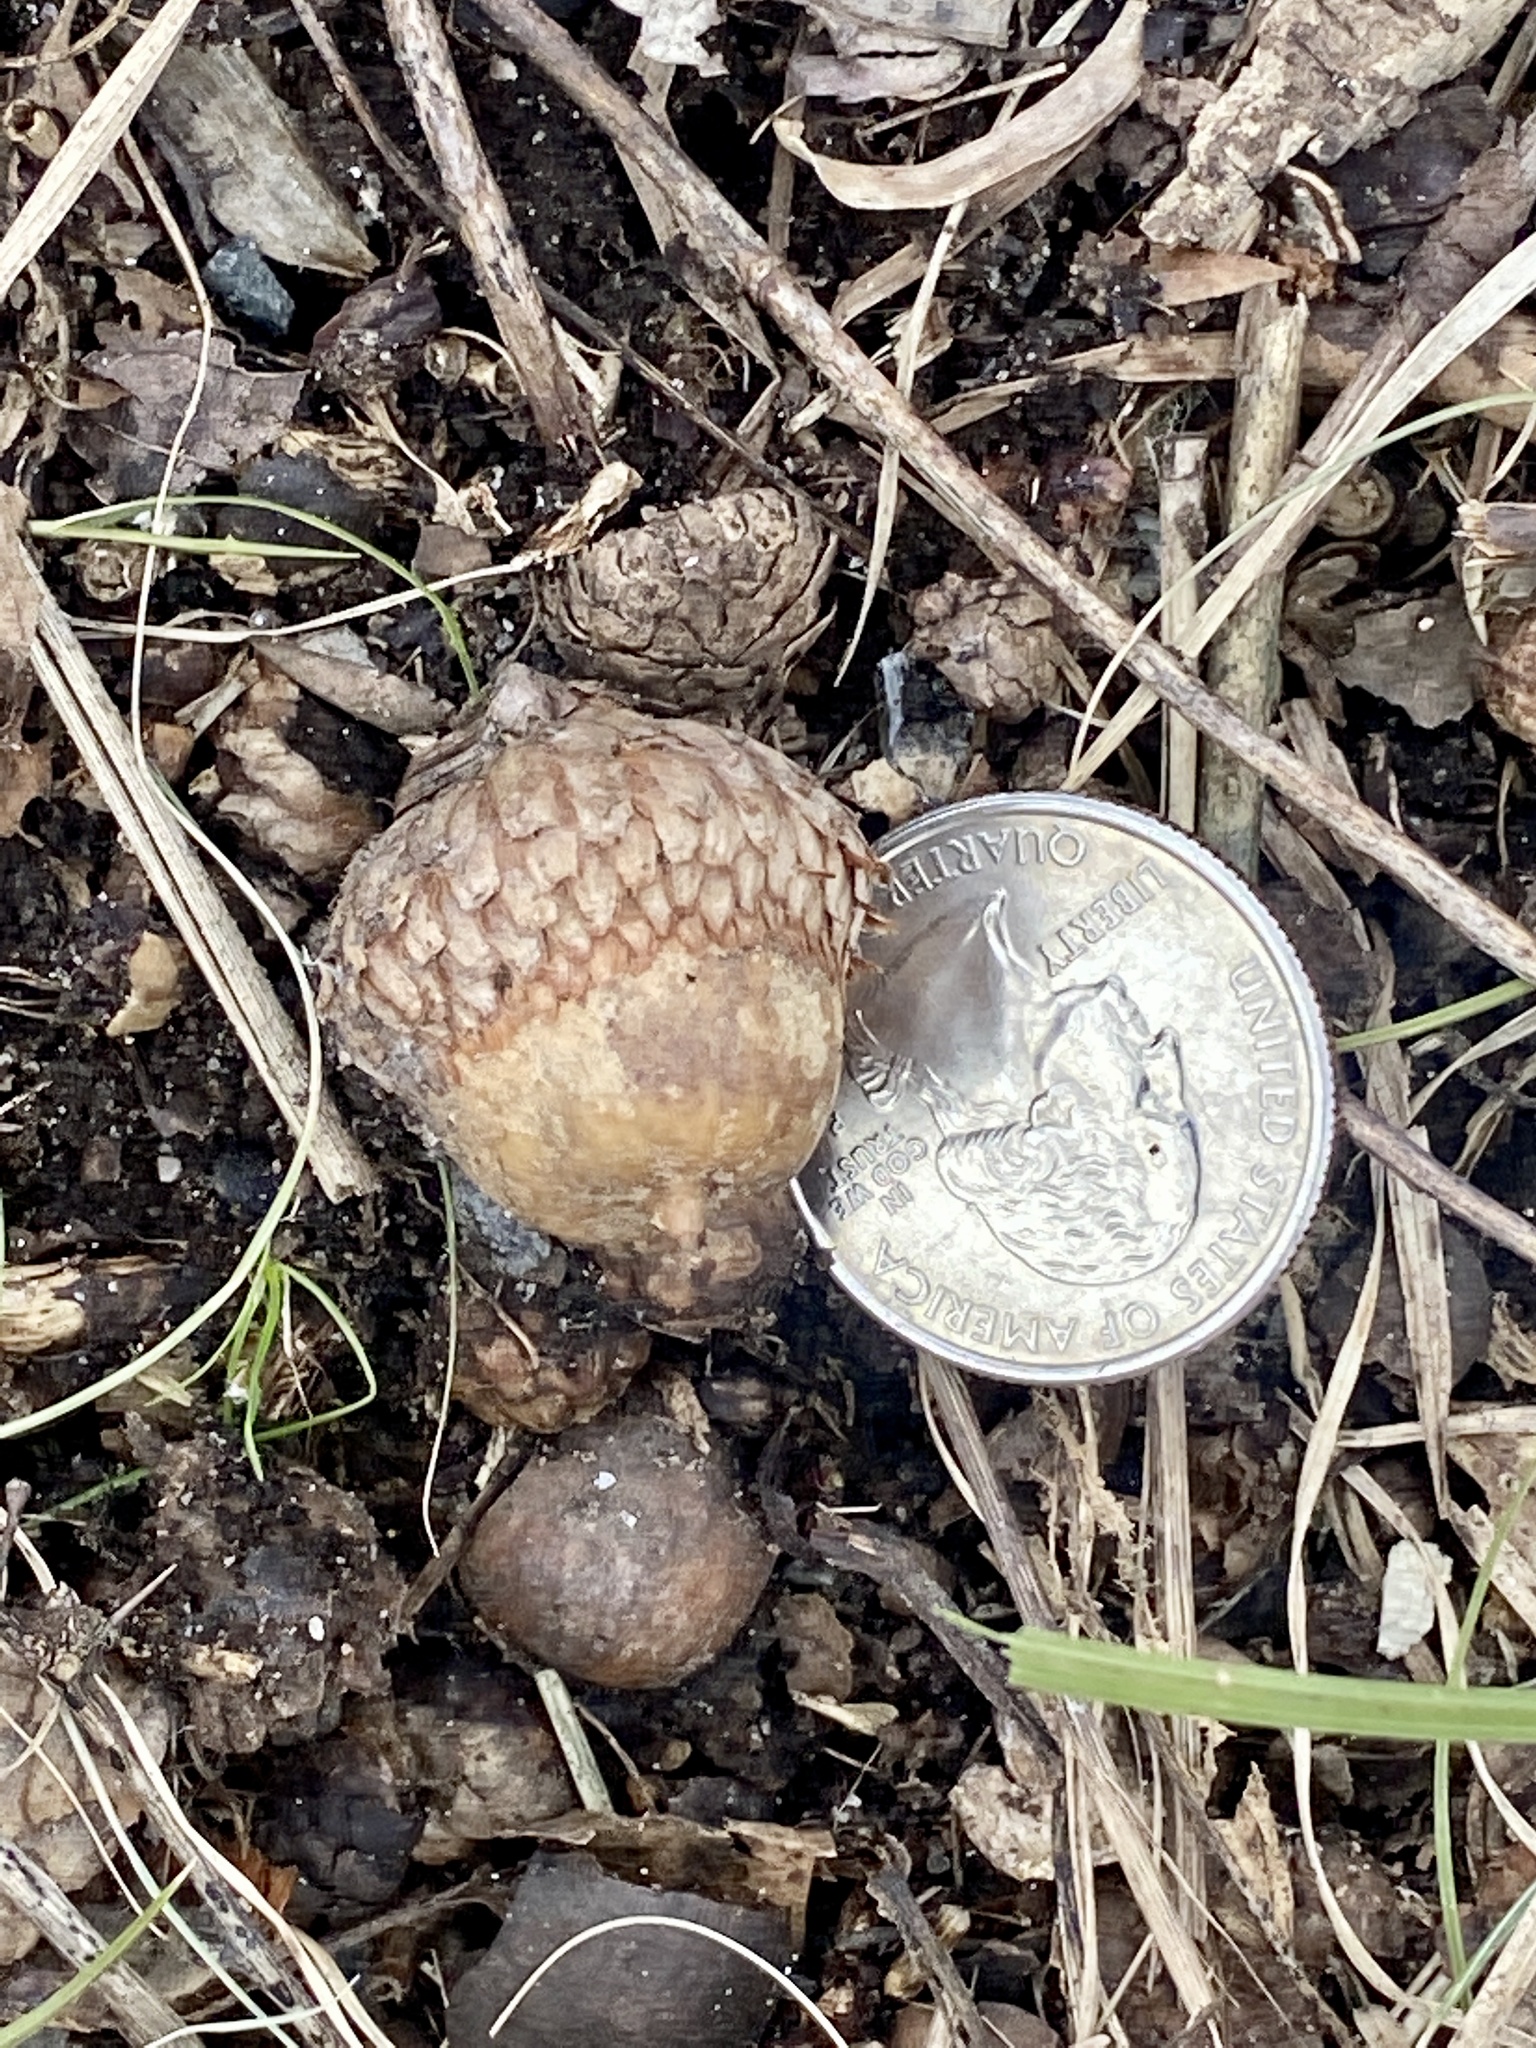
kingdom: Plantae
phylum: Tracheophyta
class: Magnoliopsida
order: Fagales
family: Fagaceae
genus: Quercus
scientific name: Quercus velutina
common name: Black oak
